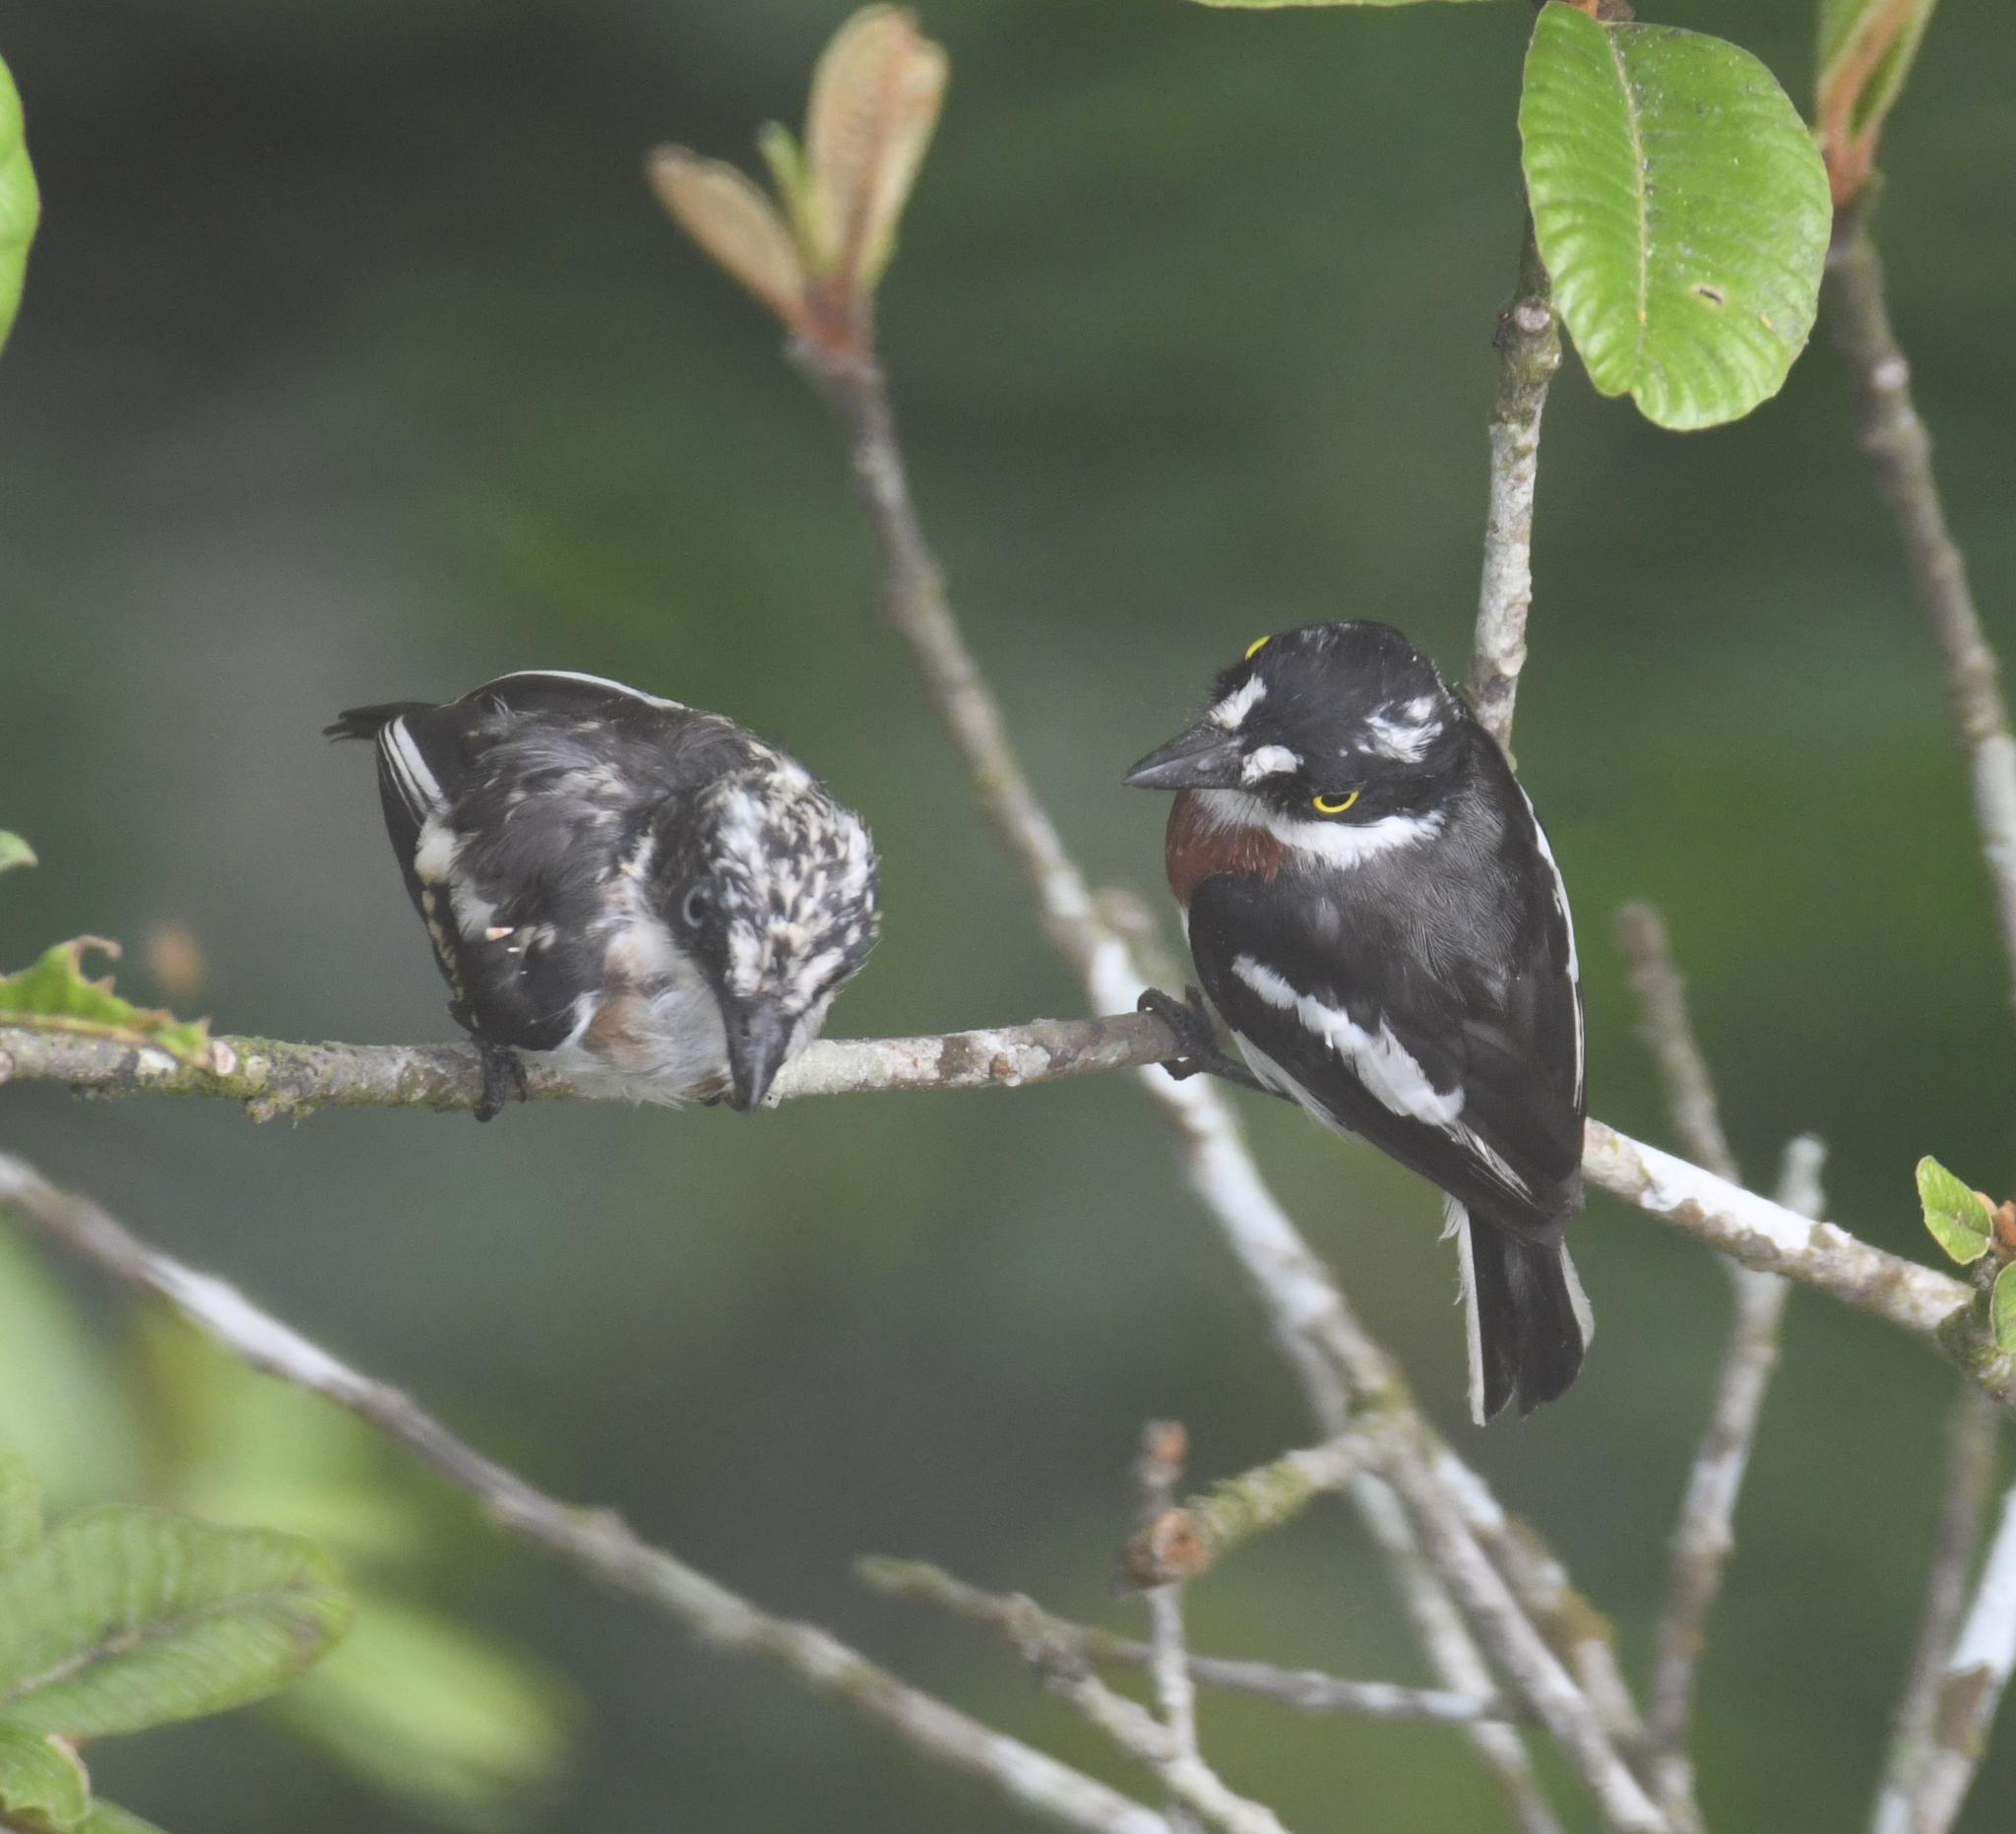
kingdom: Animalia
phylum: Chordata
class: Aves
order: Passeriformes
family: Platysteiridae
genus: Batis
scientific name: Batis poensis
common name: Fernando po batis
